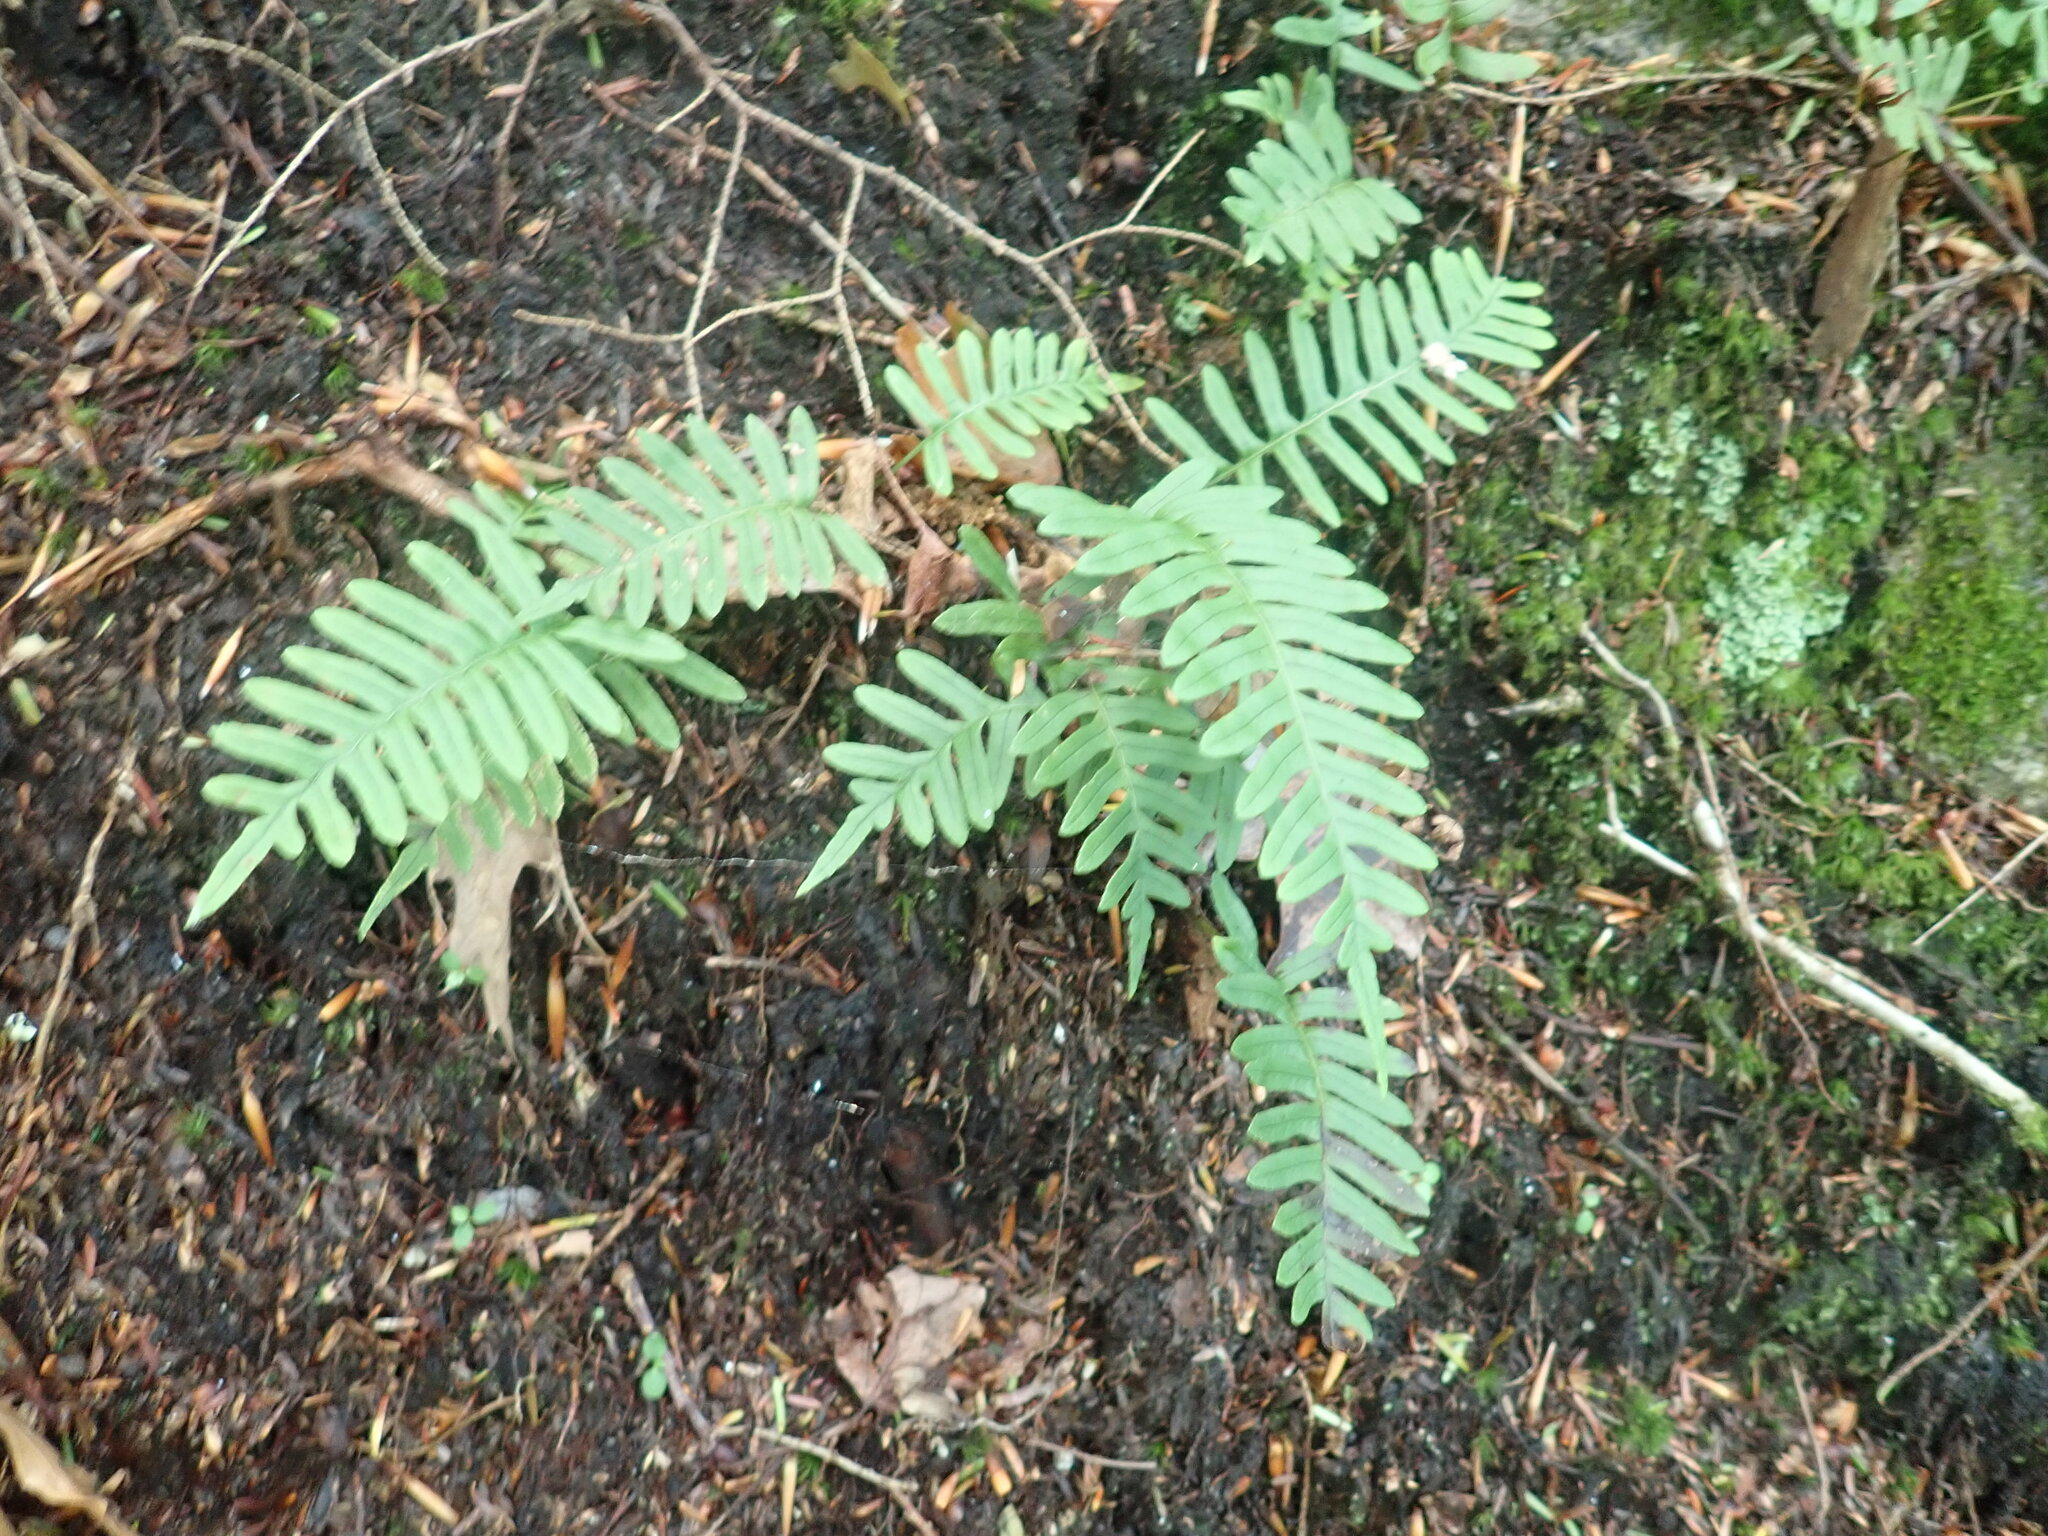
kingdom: Plantae
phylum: Tracheophyta
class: Polypodiopsida
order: Polypodiales
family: Polypodiaceae
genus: Polypodium
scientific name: Polypodium
